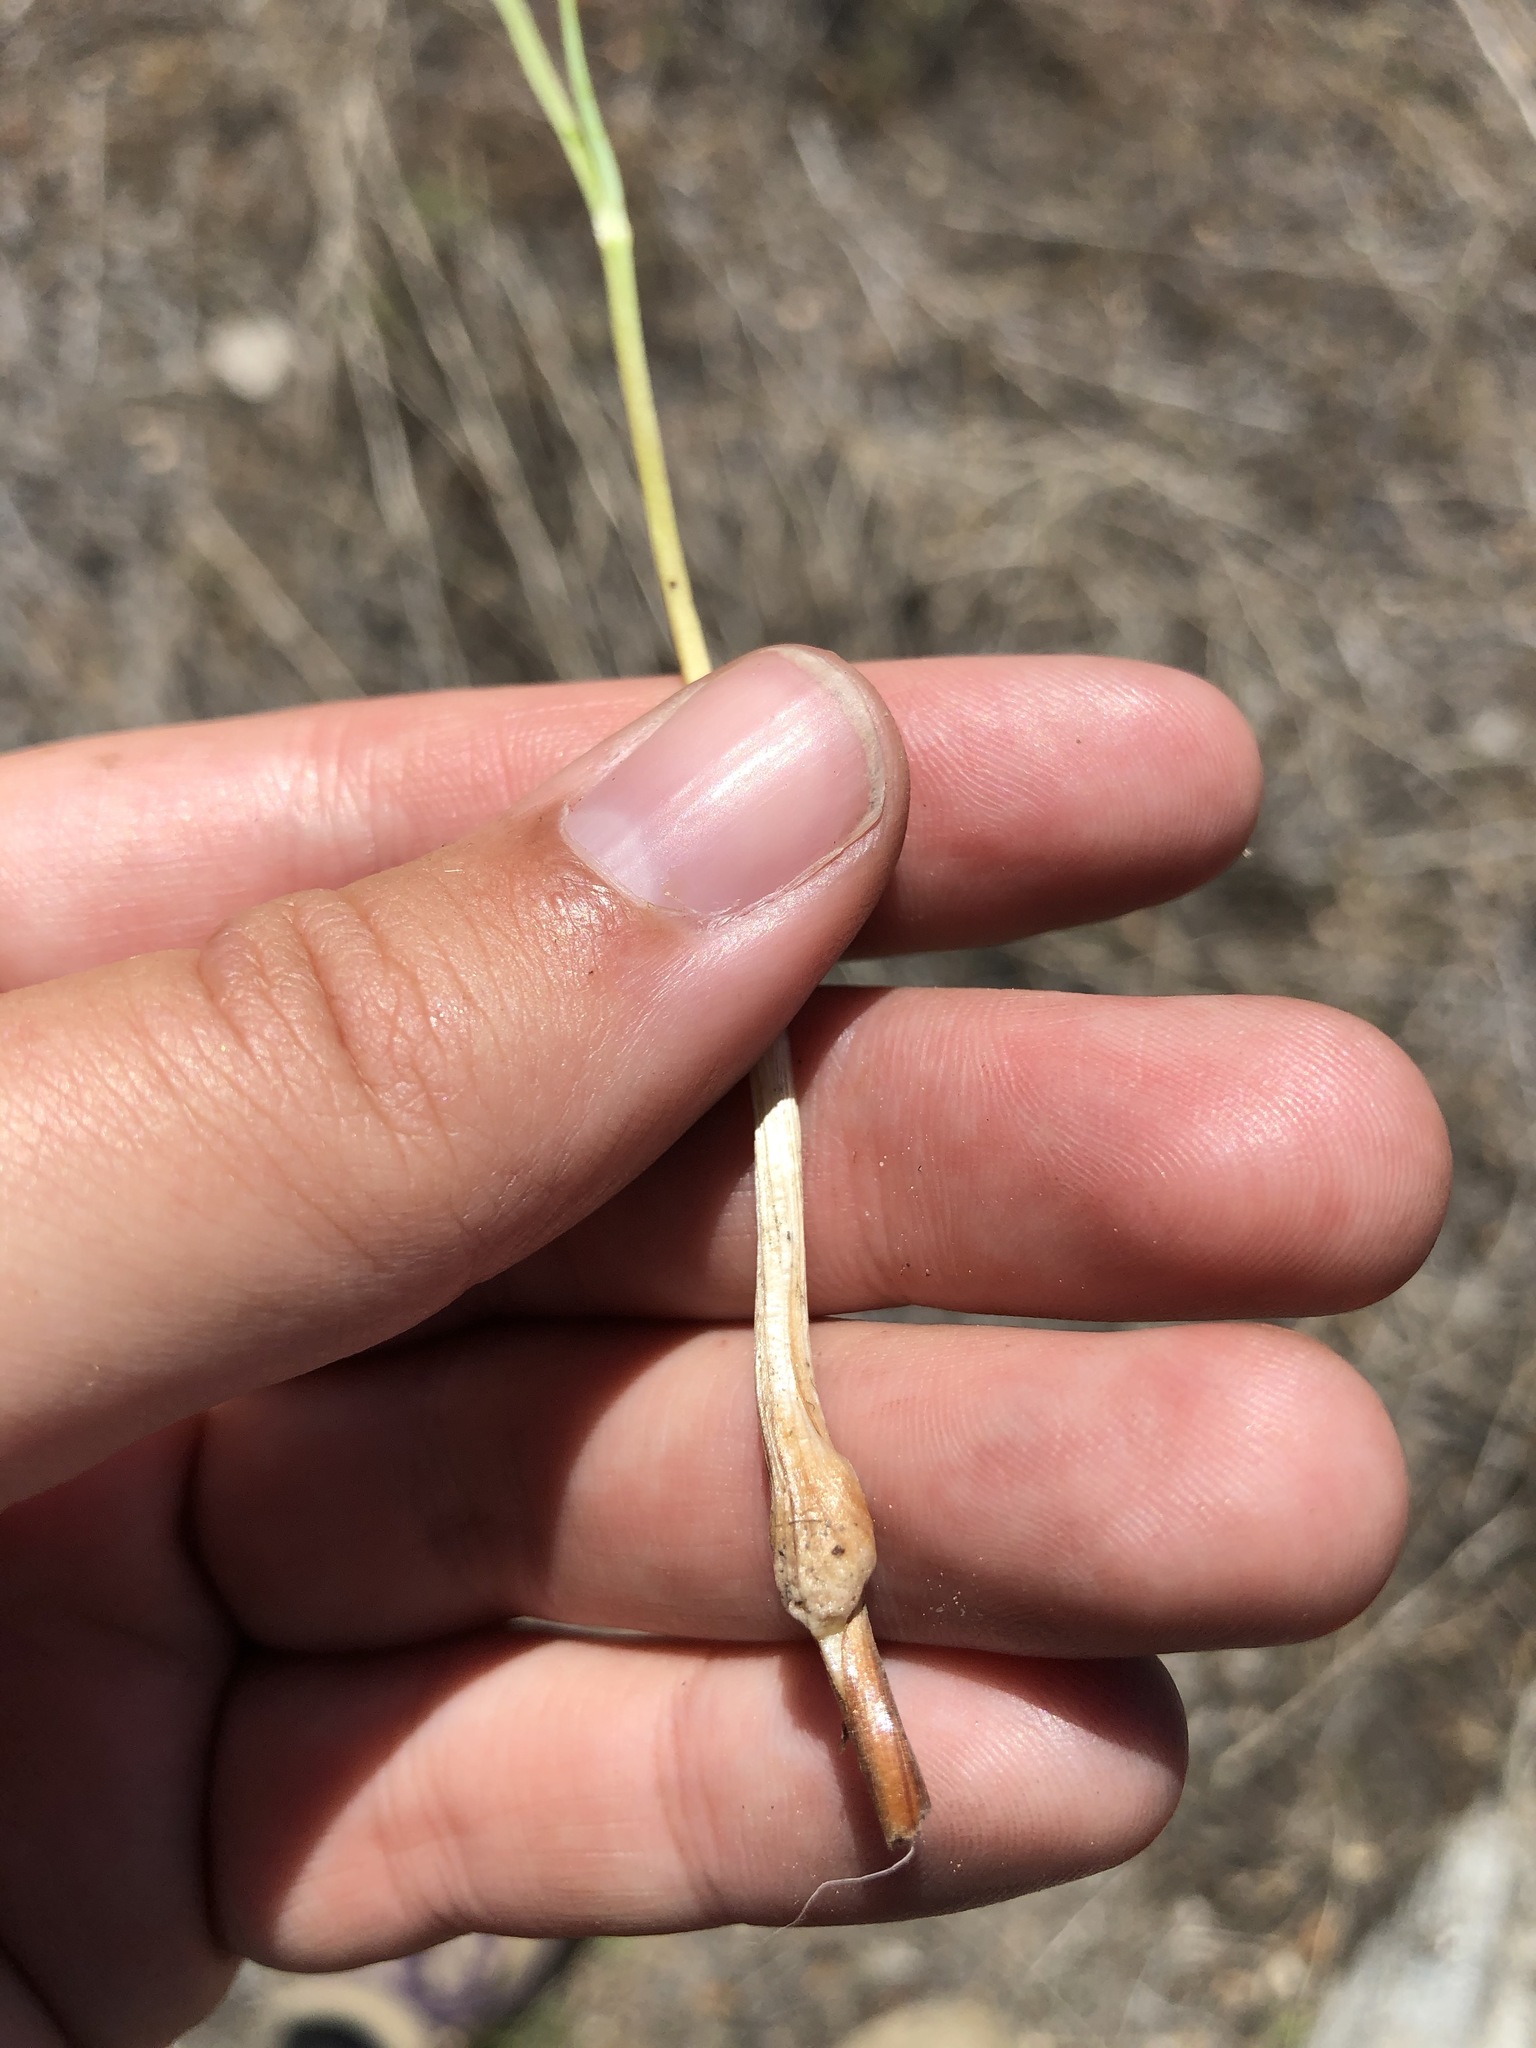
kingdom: Plantae
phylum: Tracheophyta
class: Liliopsida
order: Liliales
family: Liliaceae
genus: Calochortus
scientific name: Calochortus venustus
